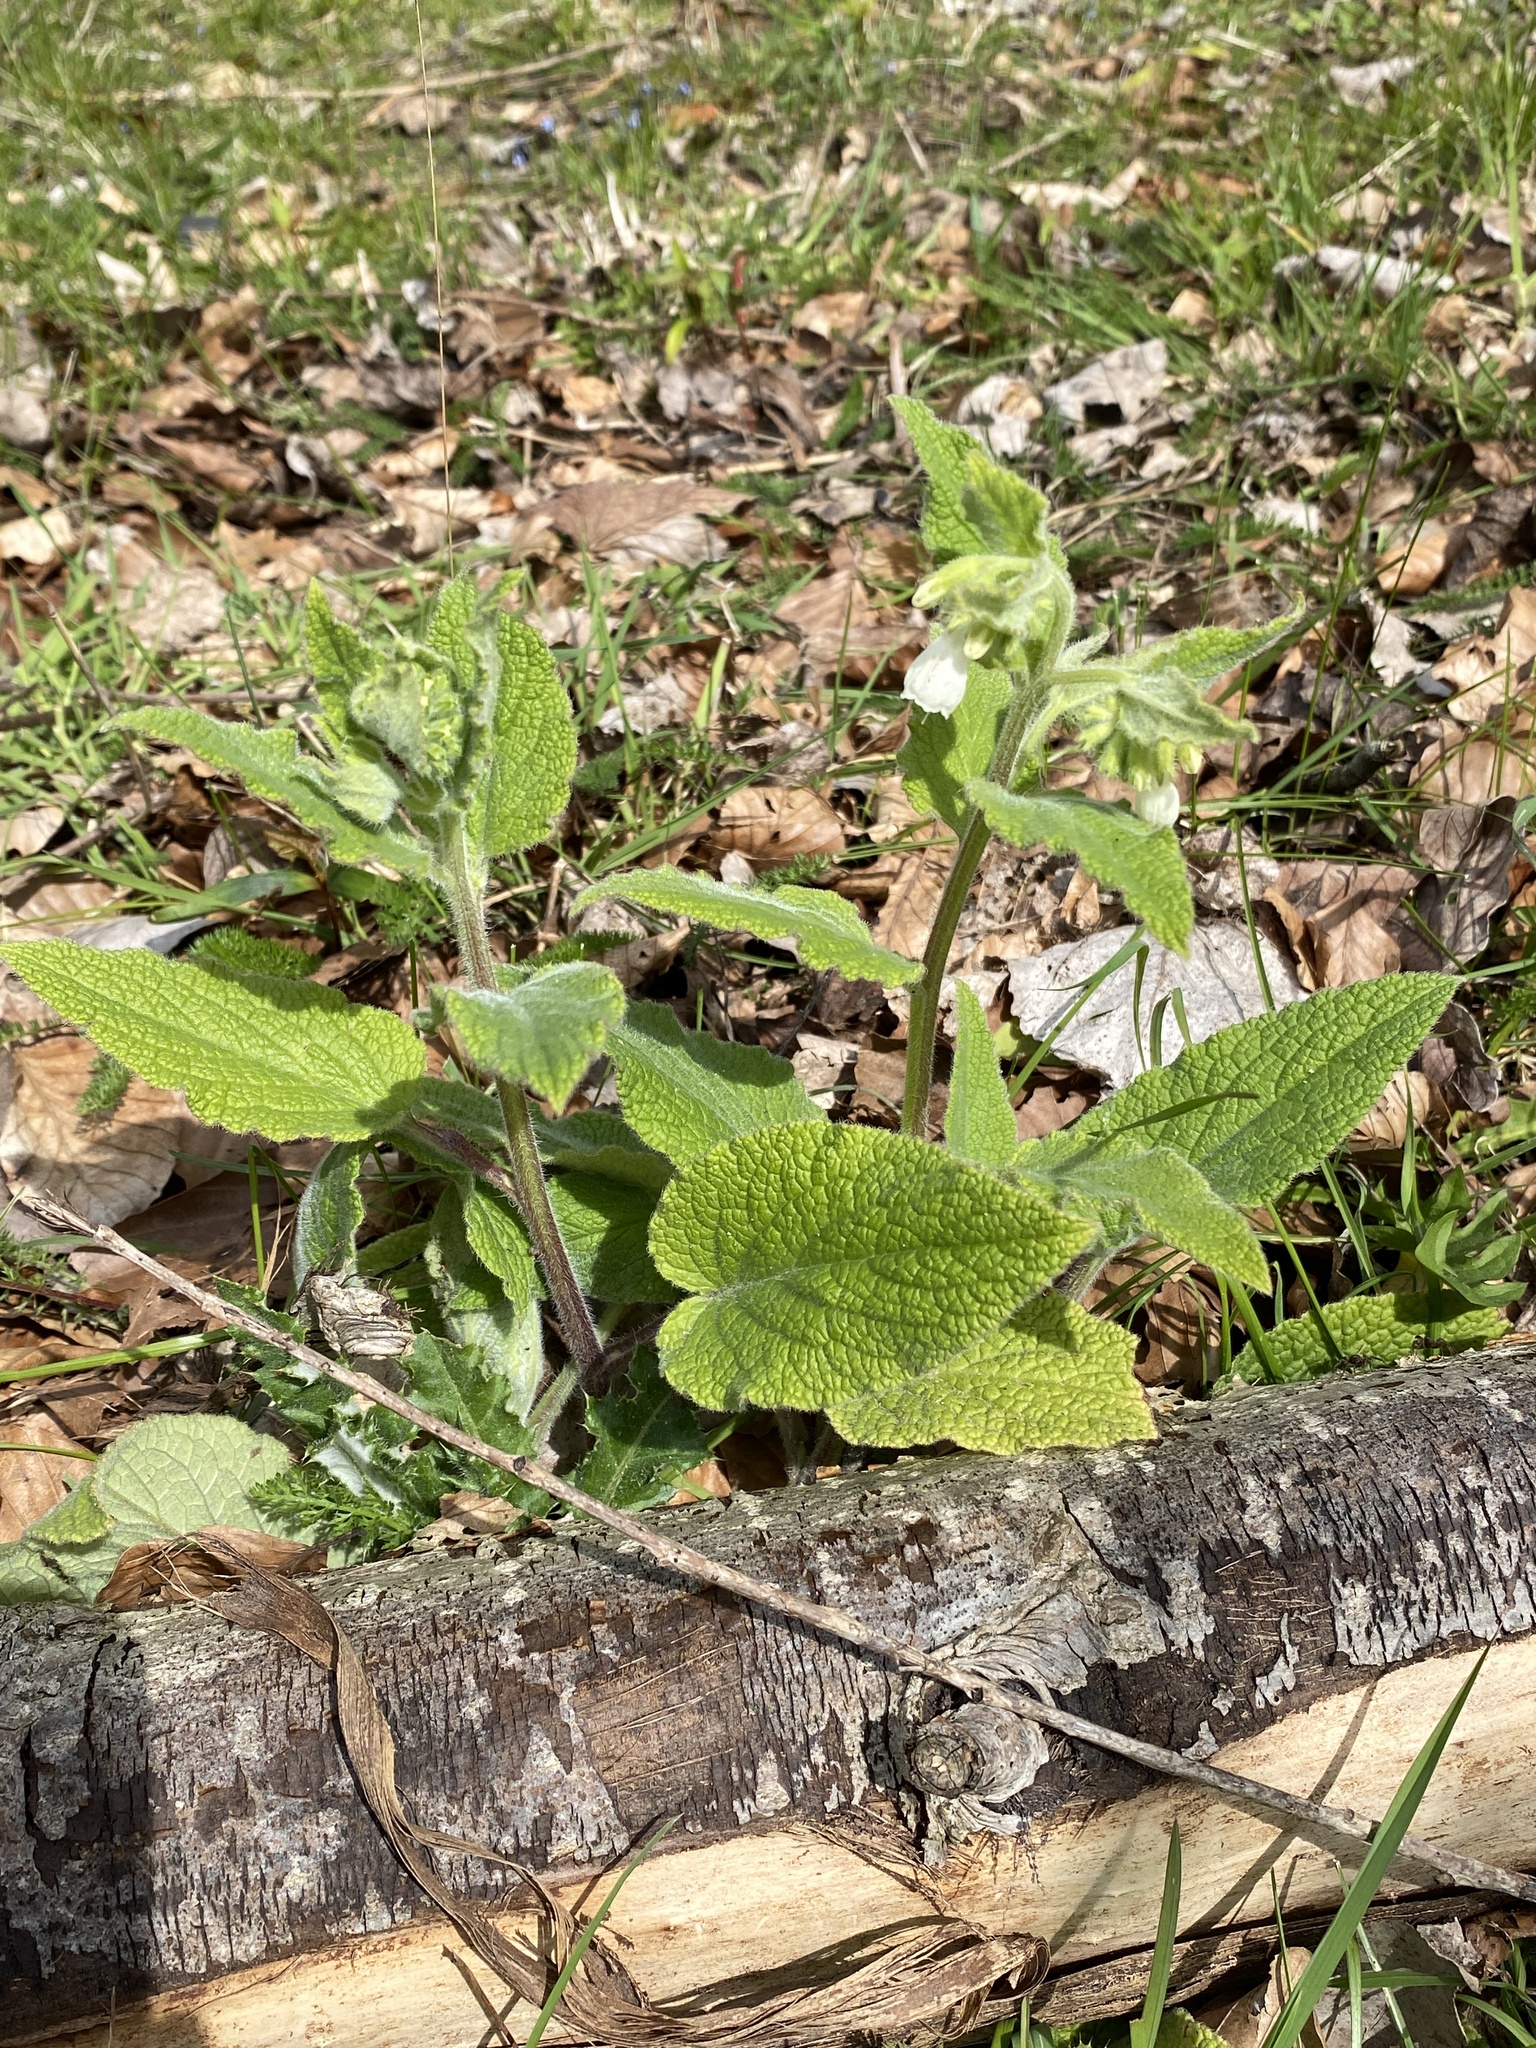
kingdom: Plantae
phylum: Tracheophyta
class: Magnoliopsida
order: Boraginales
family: Boraginaceae
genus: Symphytum
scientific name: Symphytum orientale
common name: White comfrey
